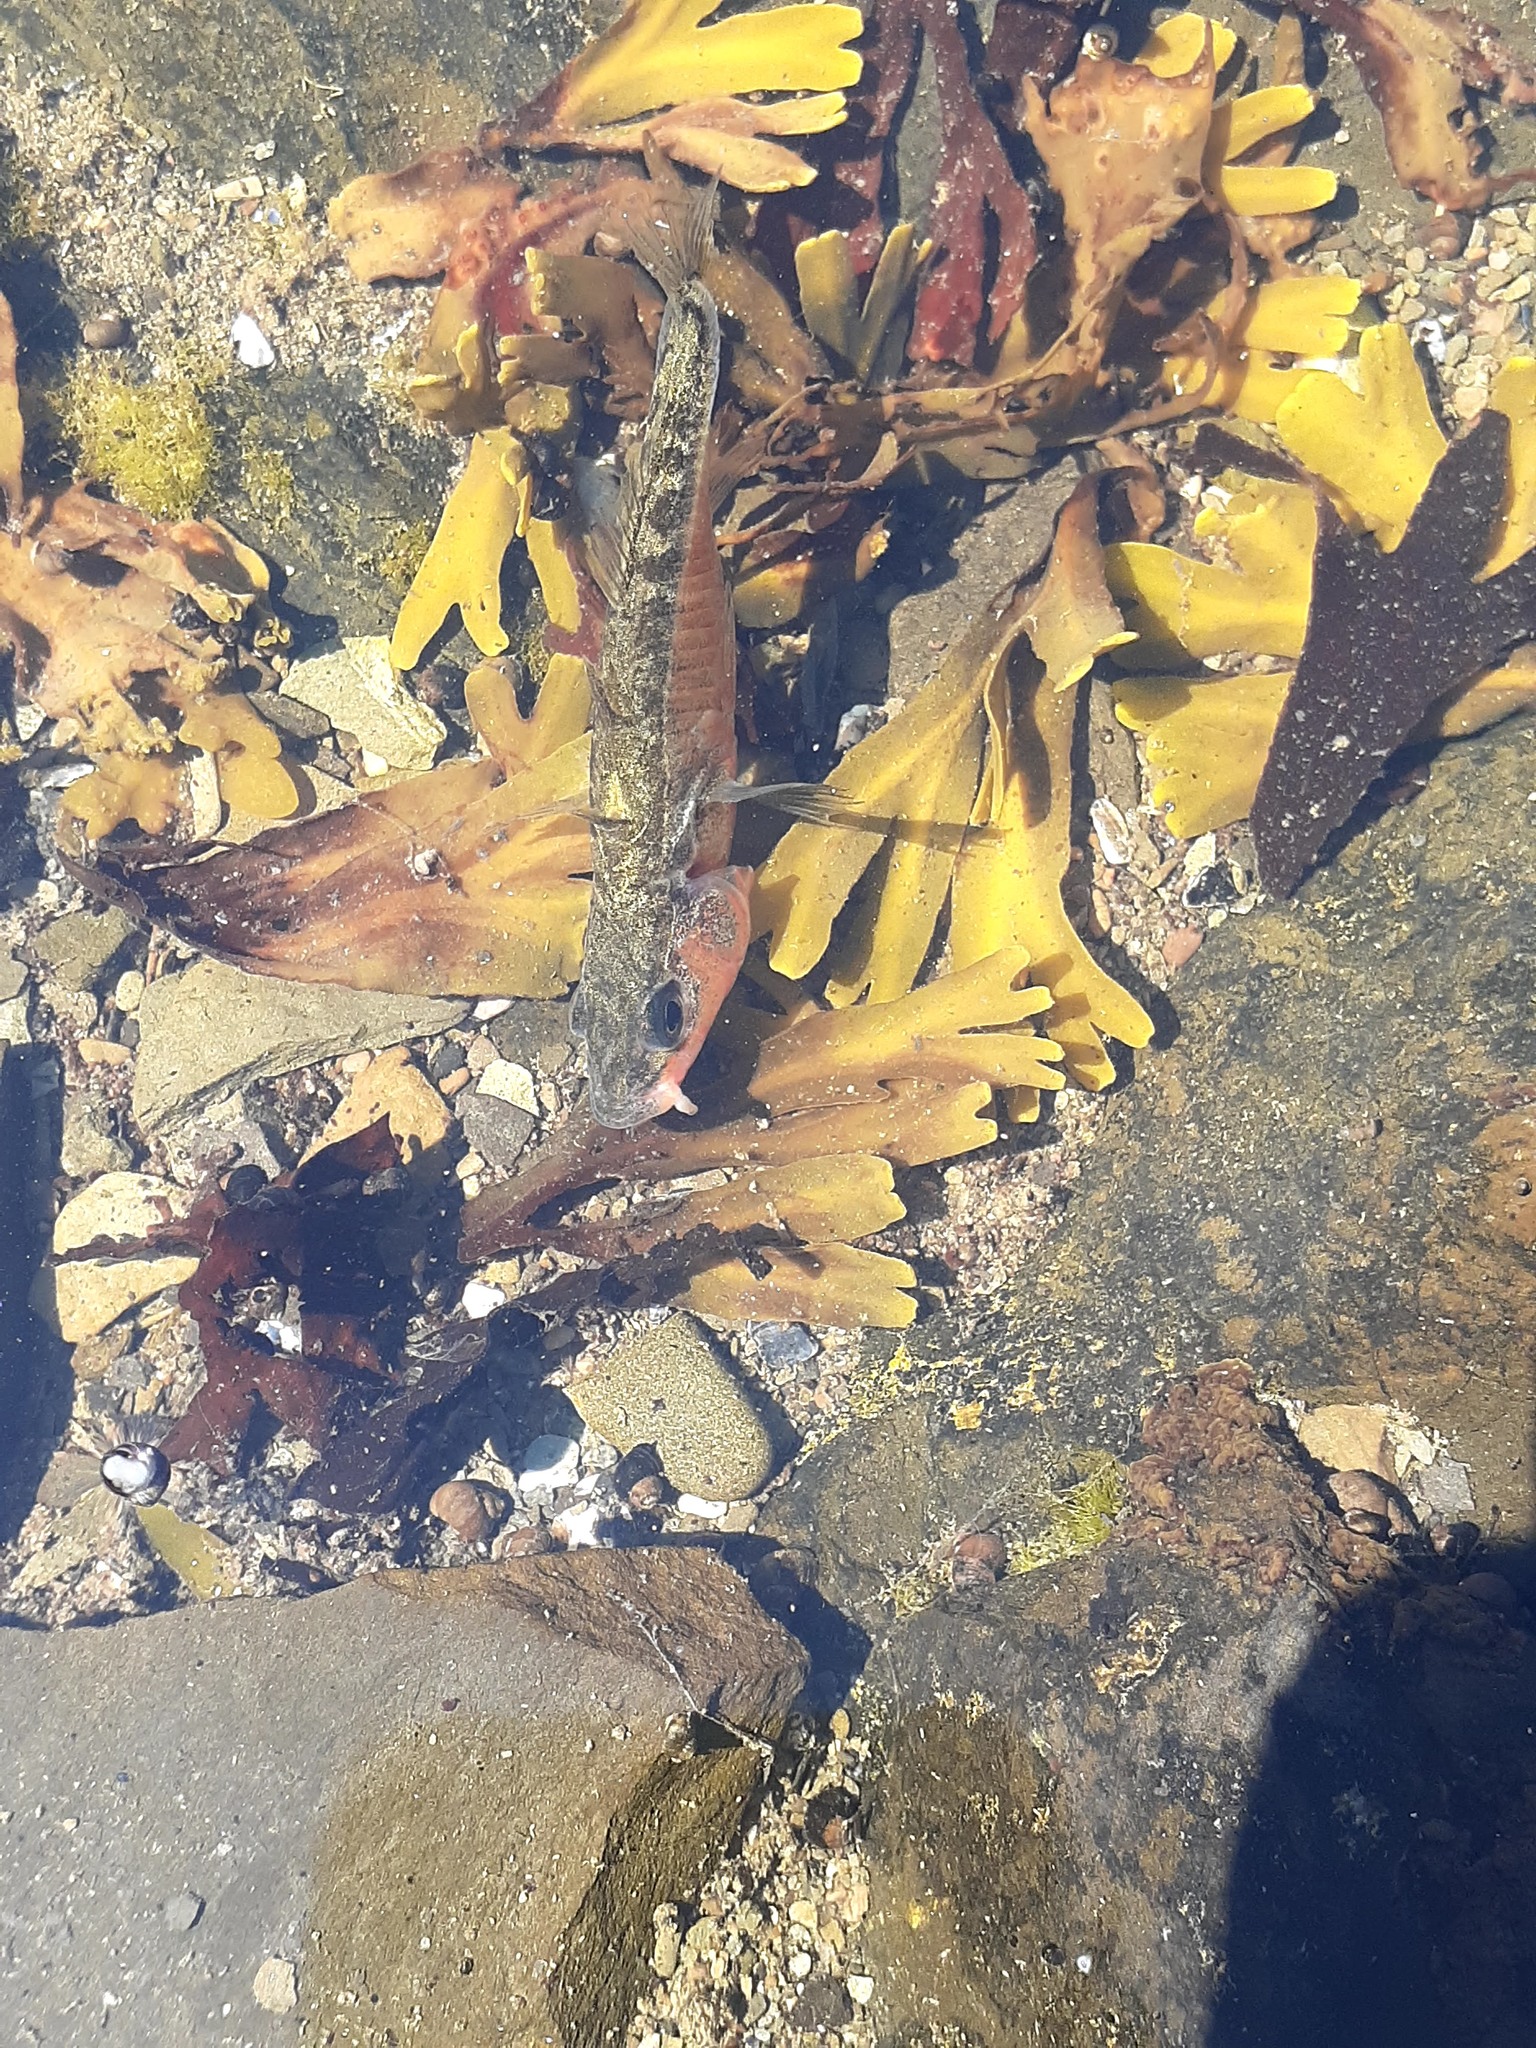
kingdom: Animalia
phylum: Chordata
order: Gasterosteiformes
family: Gasterosteidae
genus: Gasterosteus
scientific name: Gasterosteus aculeatus
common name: Three-spined stickleback
